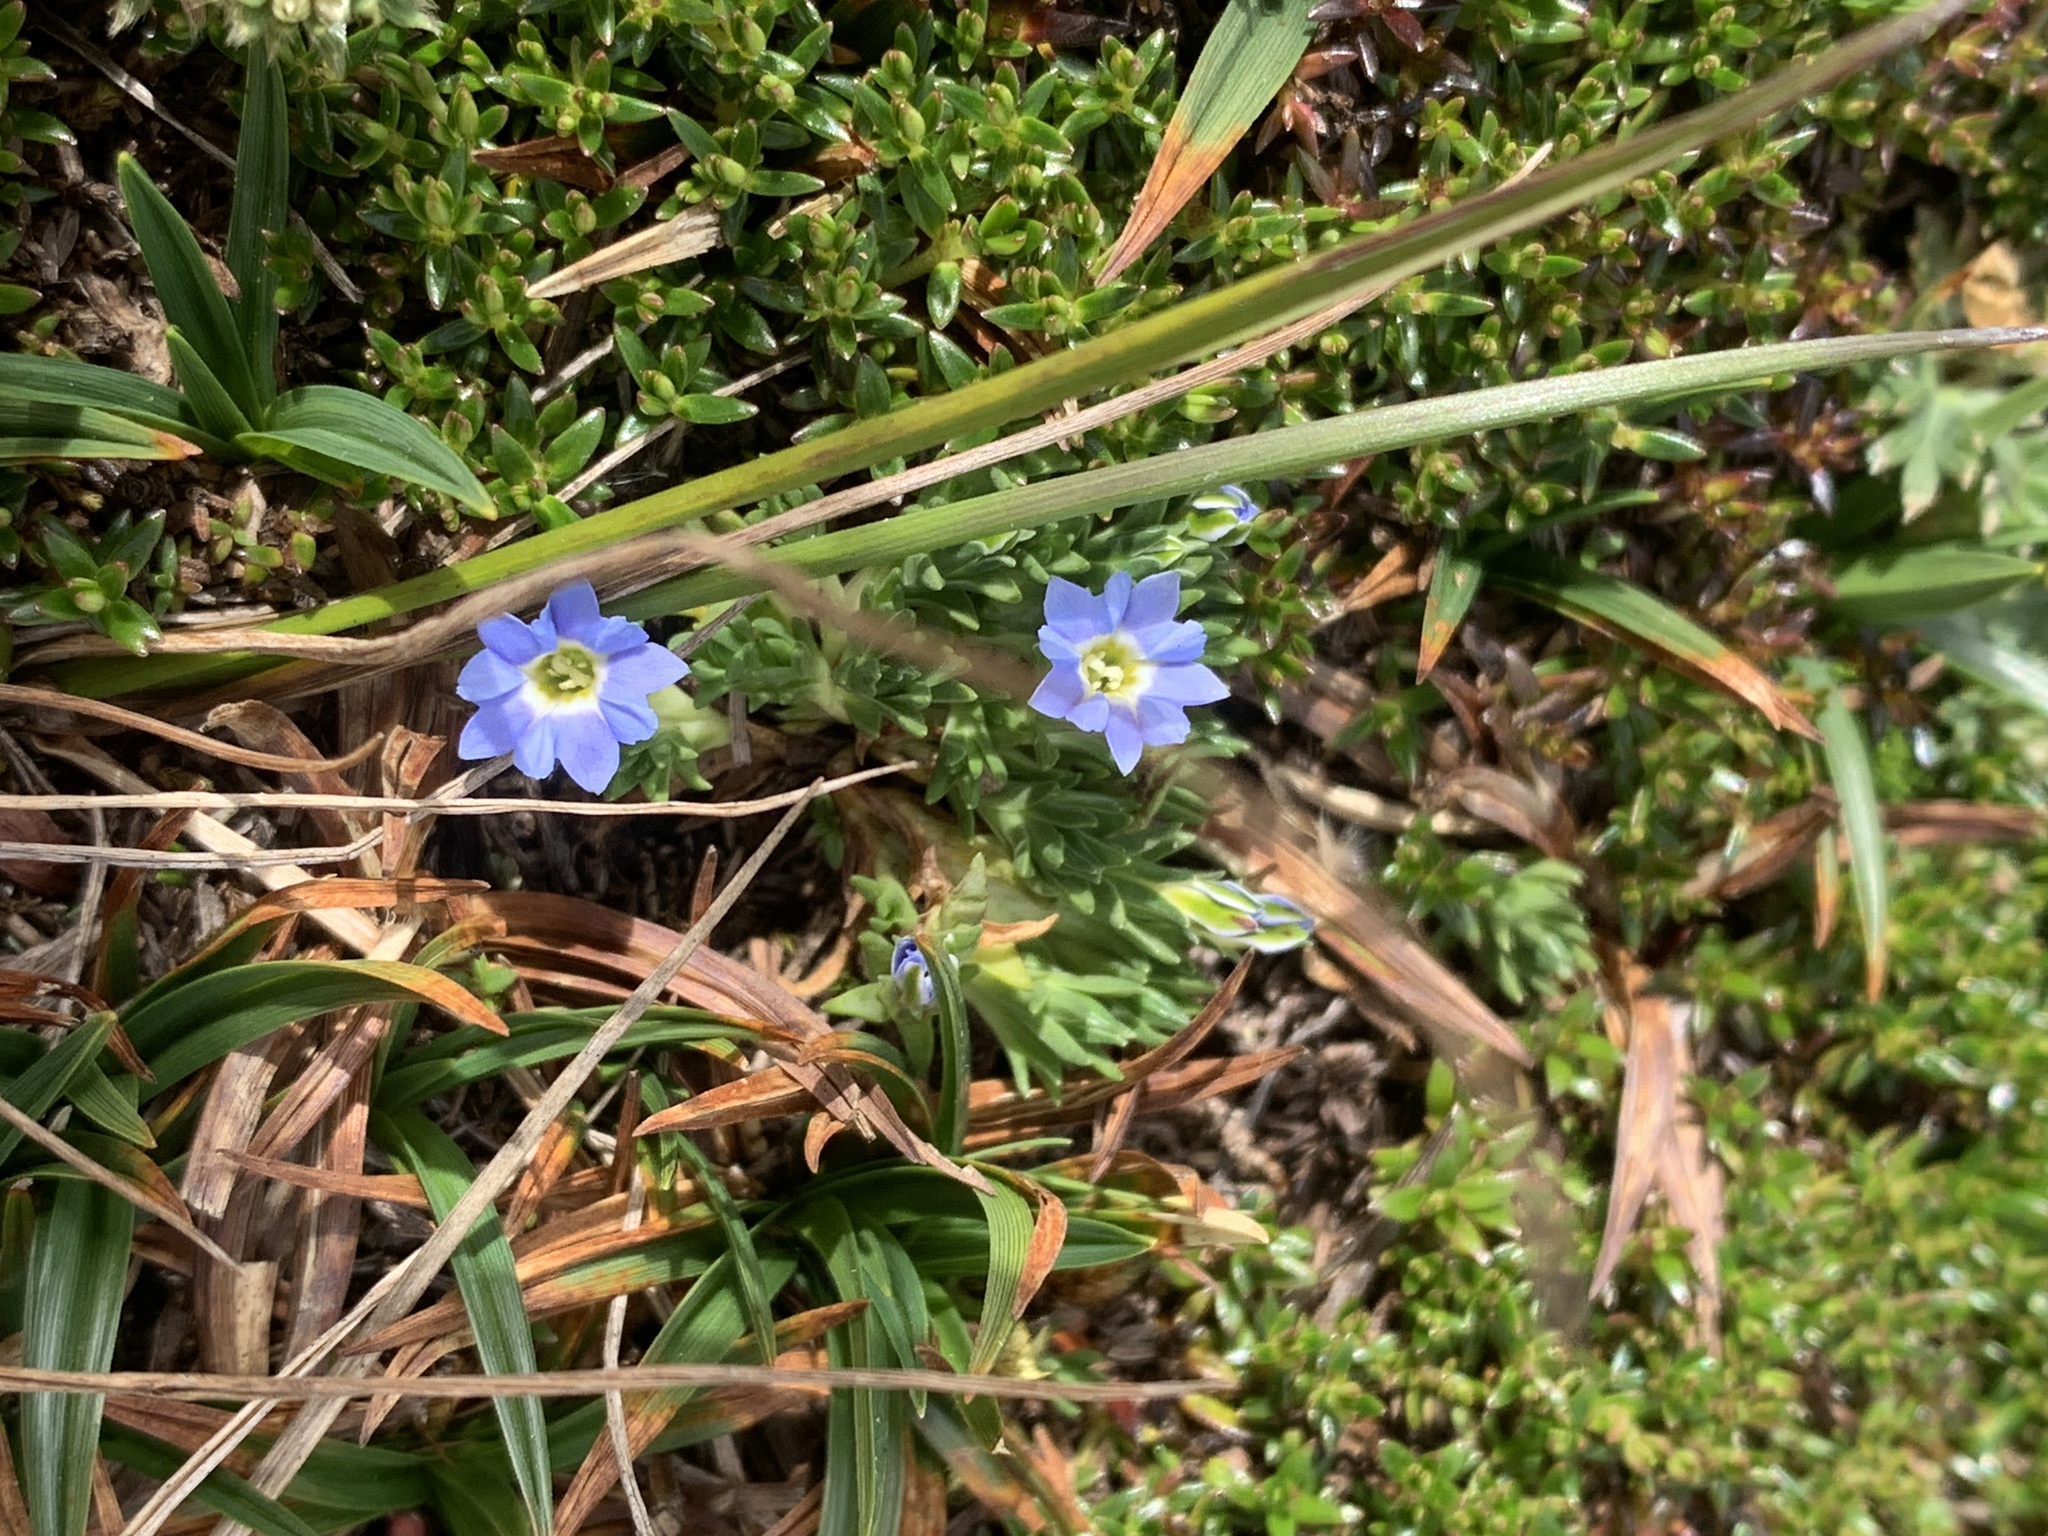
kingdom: Plantae
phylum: Tracheophyta
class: Magnoliopsida
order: Gentianales
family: Gentianaceae
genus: Gentiana
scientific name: Gentiana sedifolia
